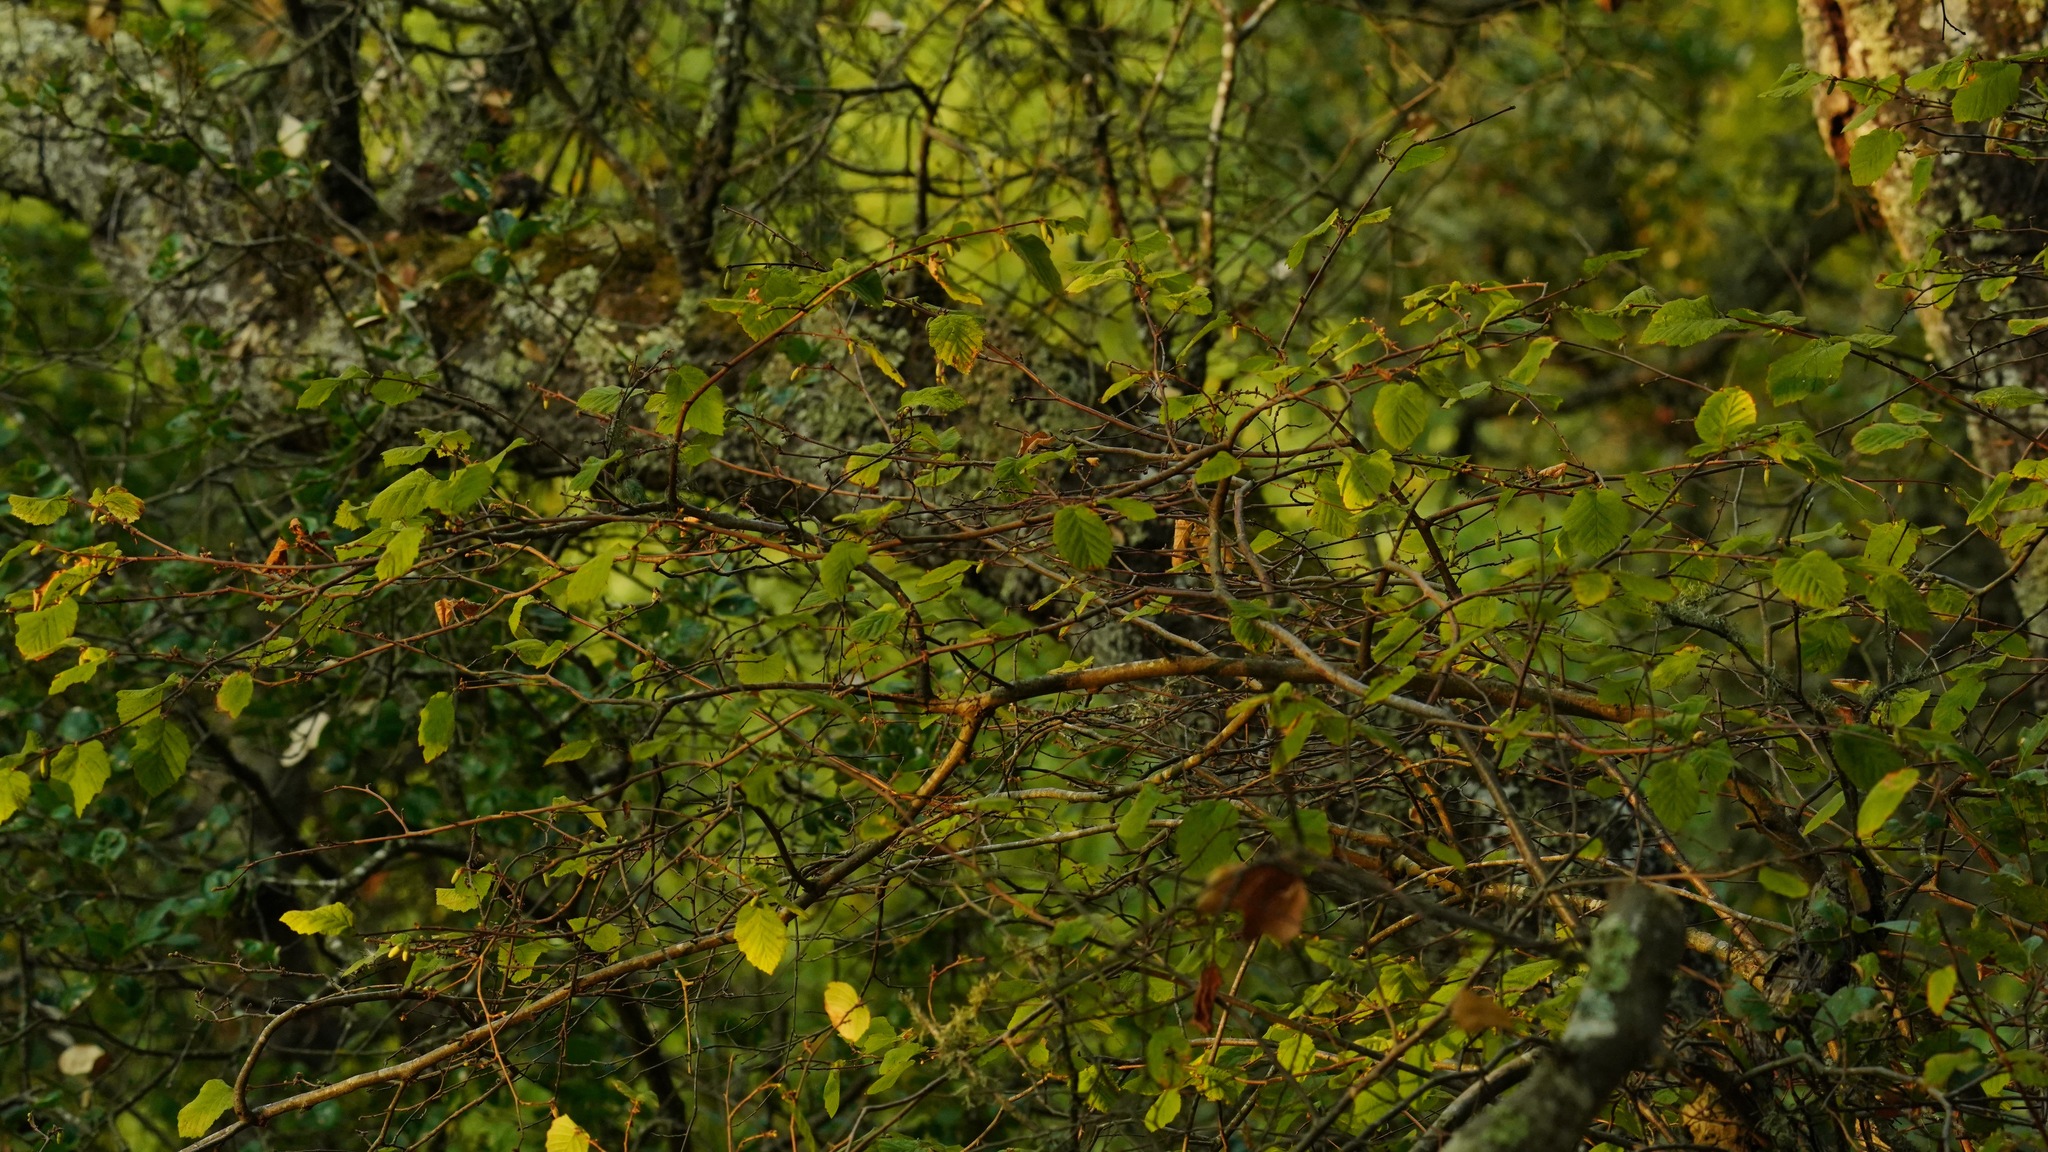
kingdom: Plantae
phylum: Tracheophyta
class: Magnoliopsida
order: Fagales
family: Betulaceae
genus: Corylus
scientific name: Corylus cornuta
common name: Beaked hazel
